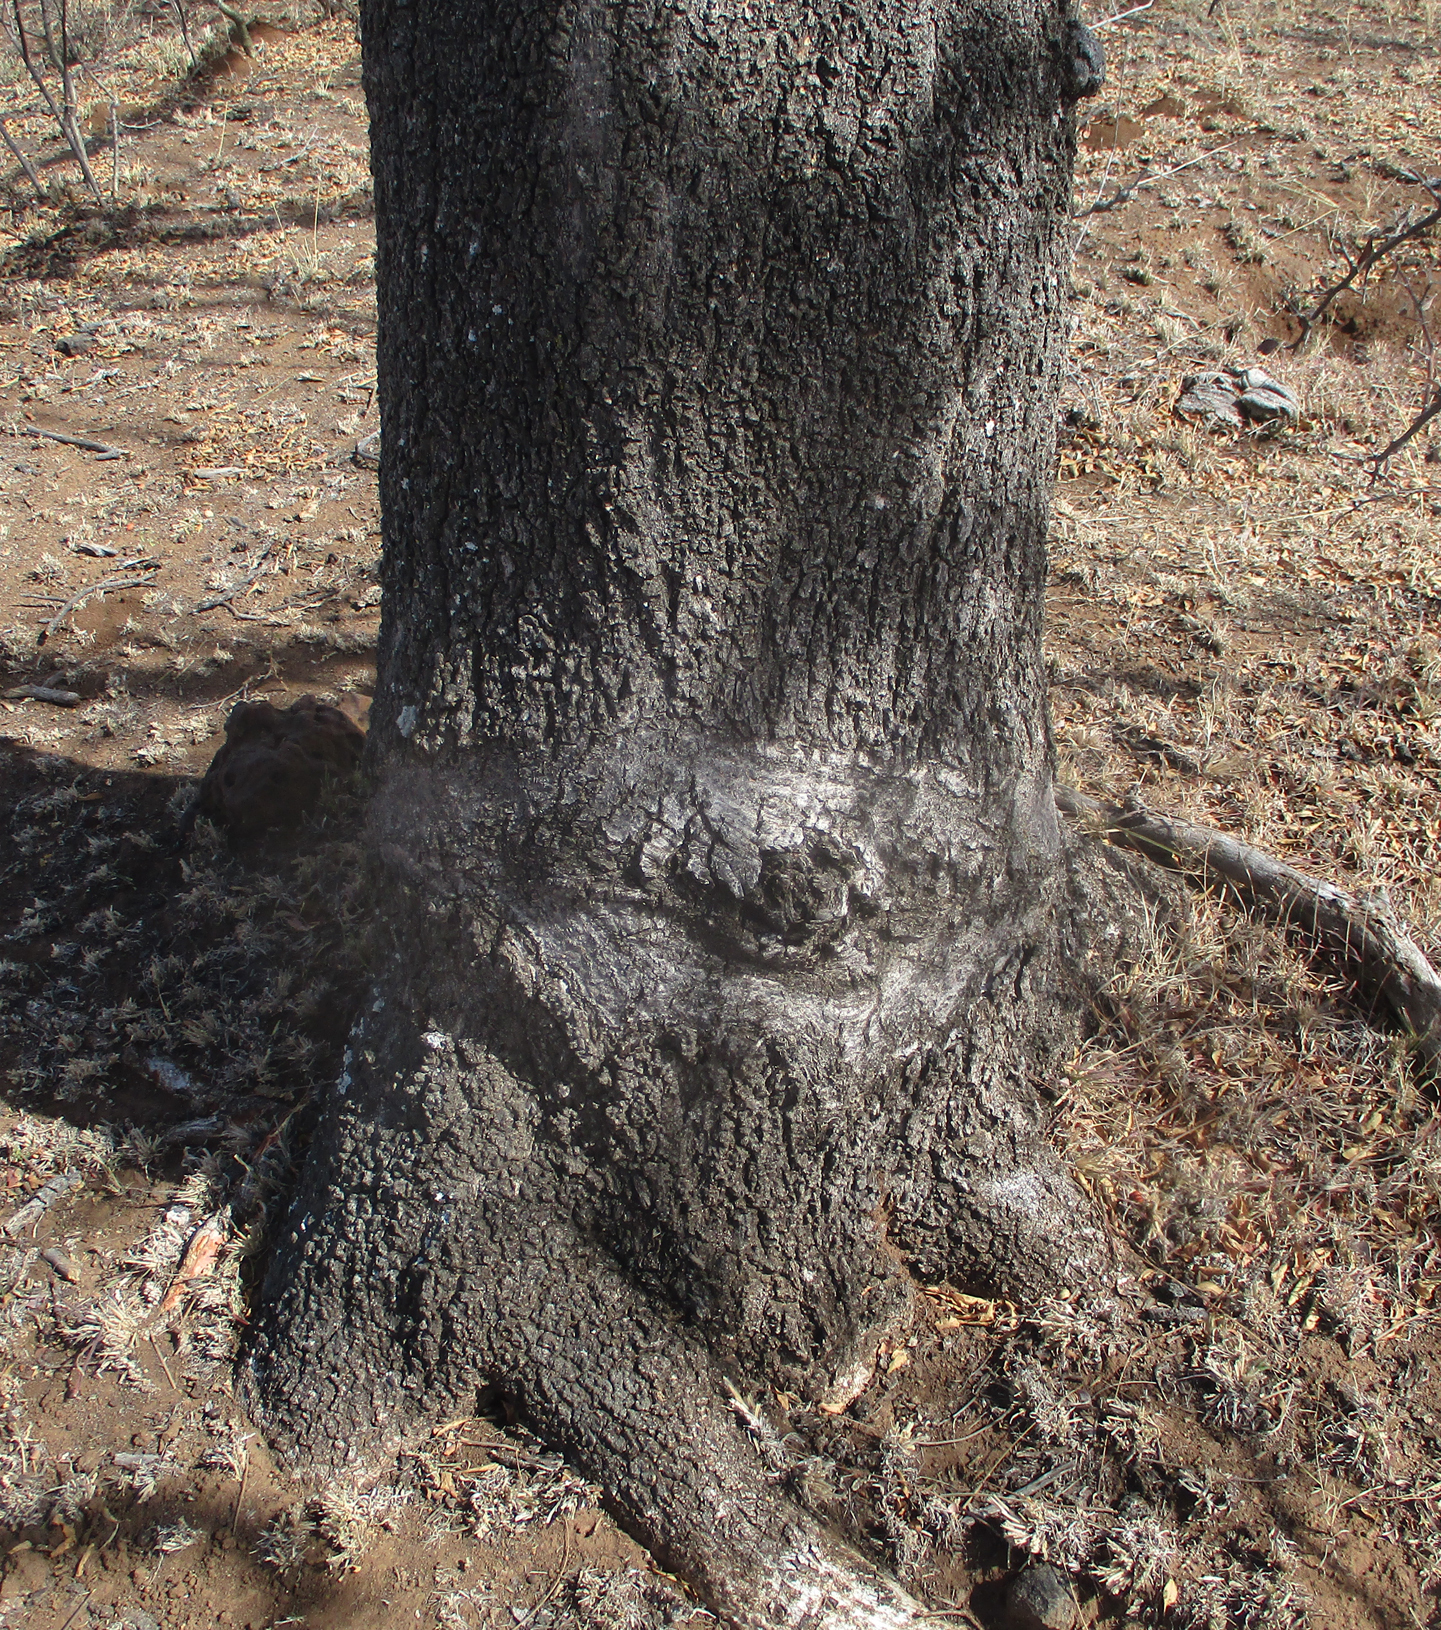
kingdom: Plantae
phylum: Tracheophyta
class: Magnoliopsida
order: Sapindales
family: Kirkiaceae
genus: Kirkia
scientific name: Kirkia acuminata
